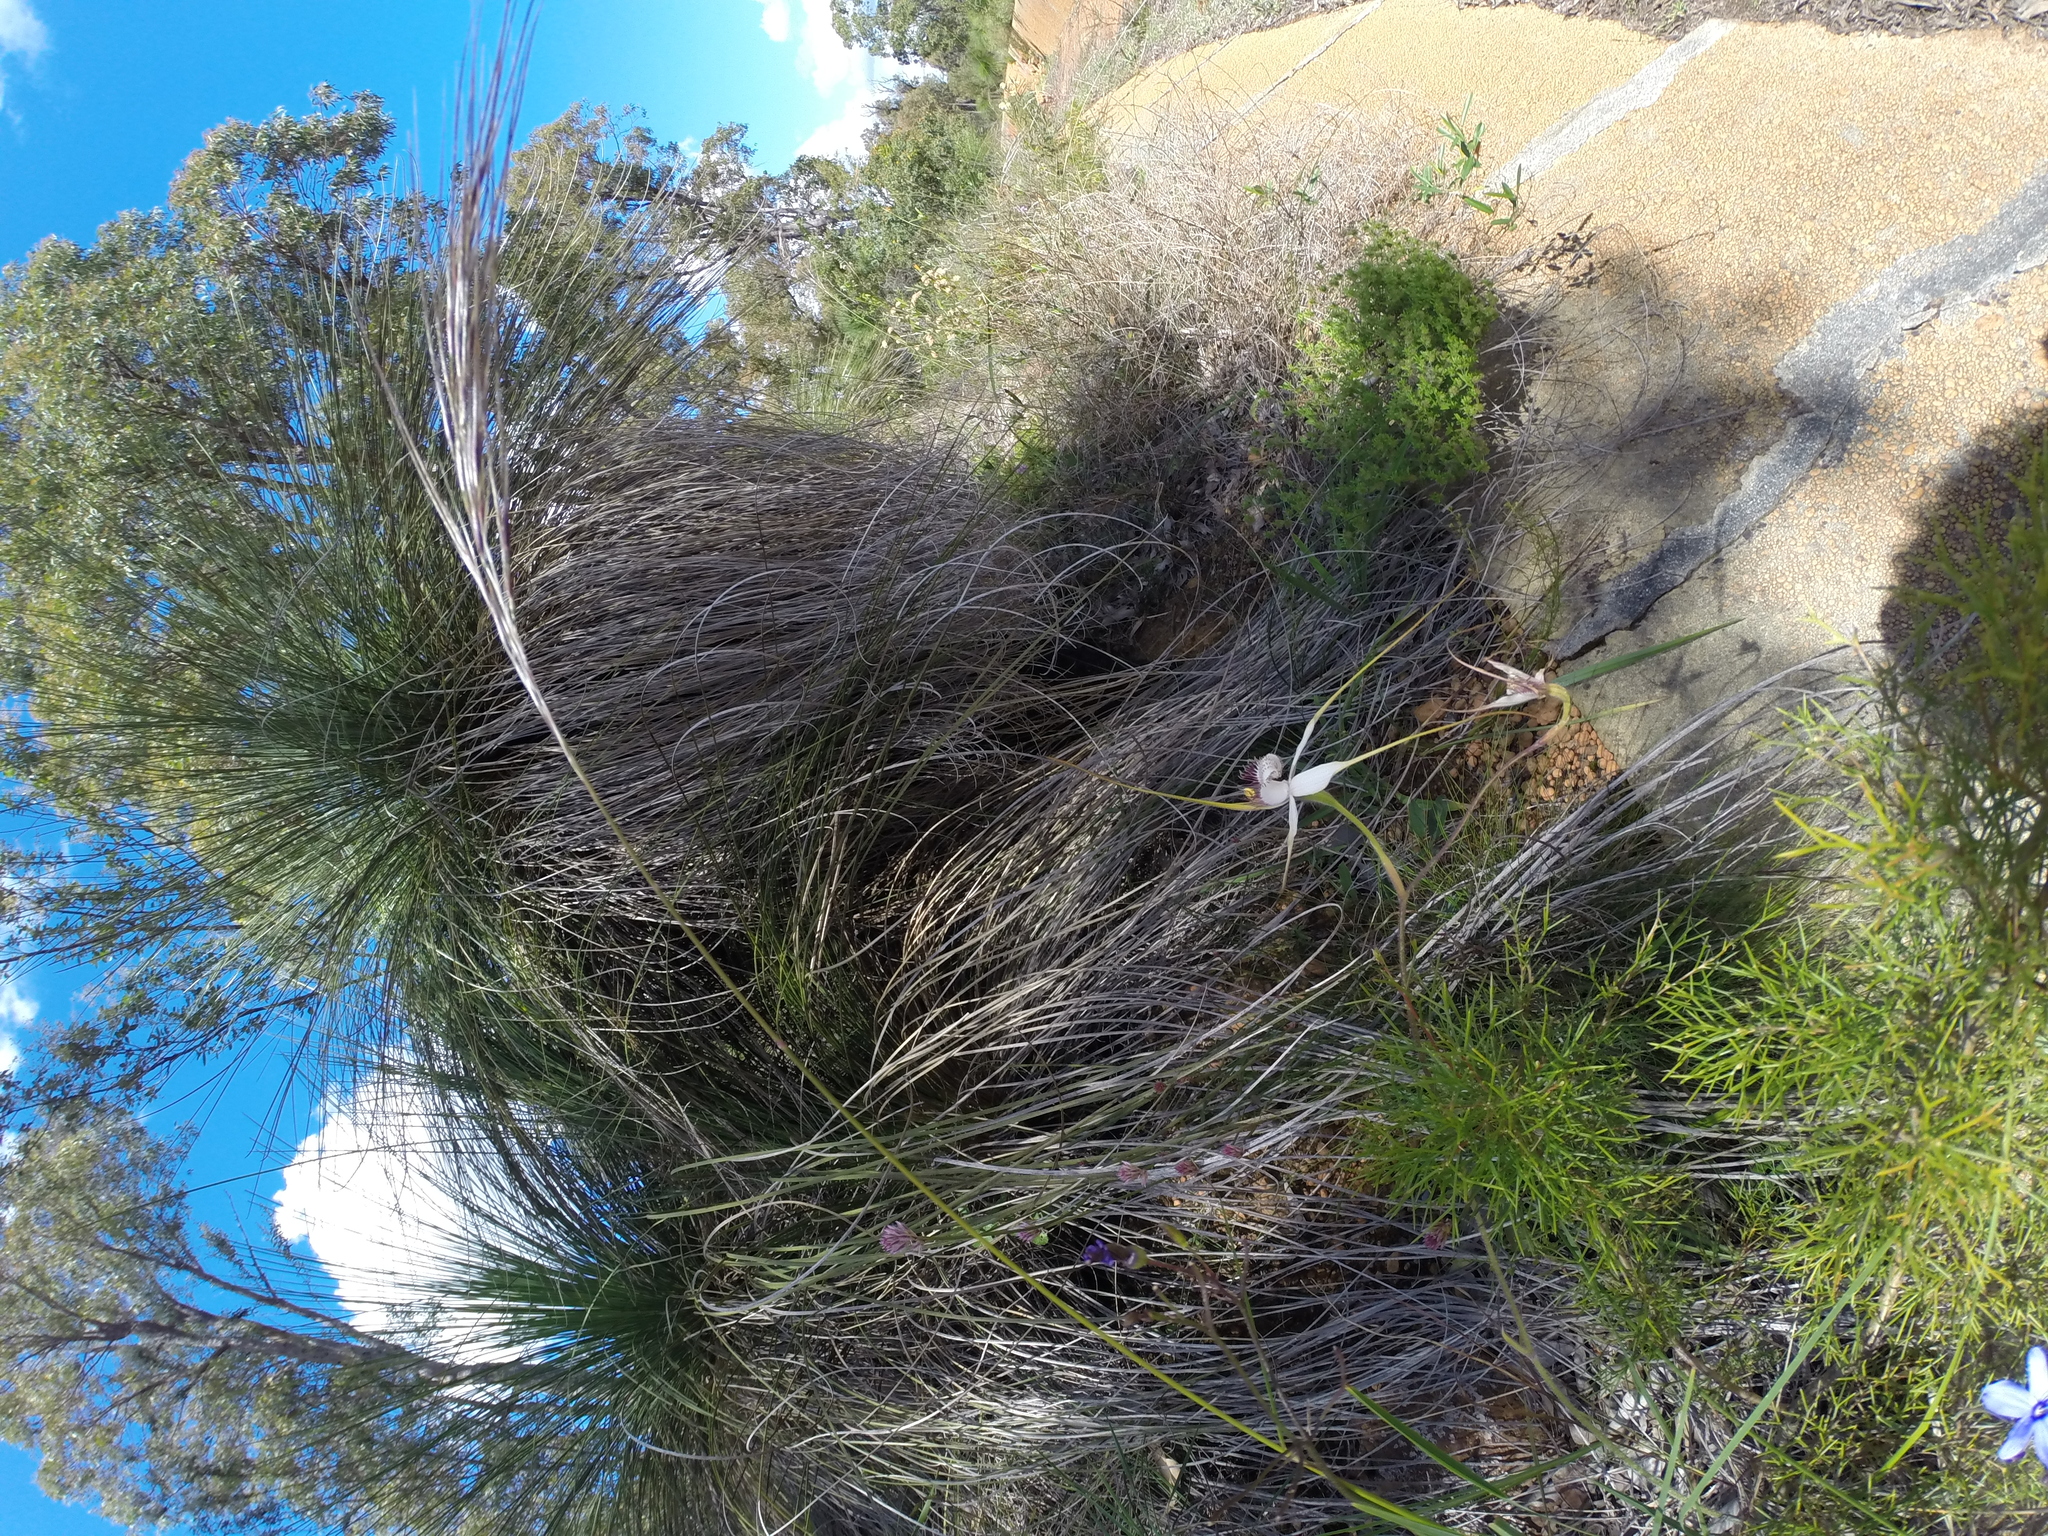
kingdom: Plantae
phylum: Tracheophyta
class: Liliopsida
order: Asparagales
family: Orchidaceae
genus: Caladenia
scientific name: Caladenia longicauda
